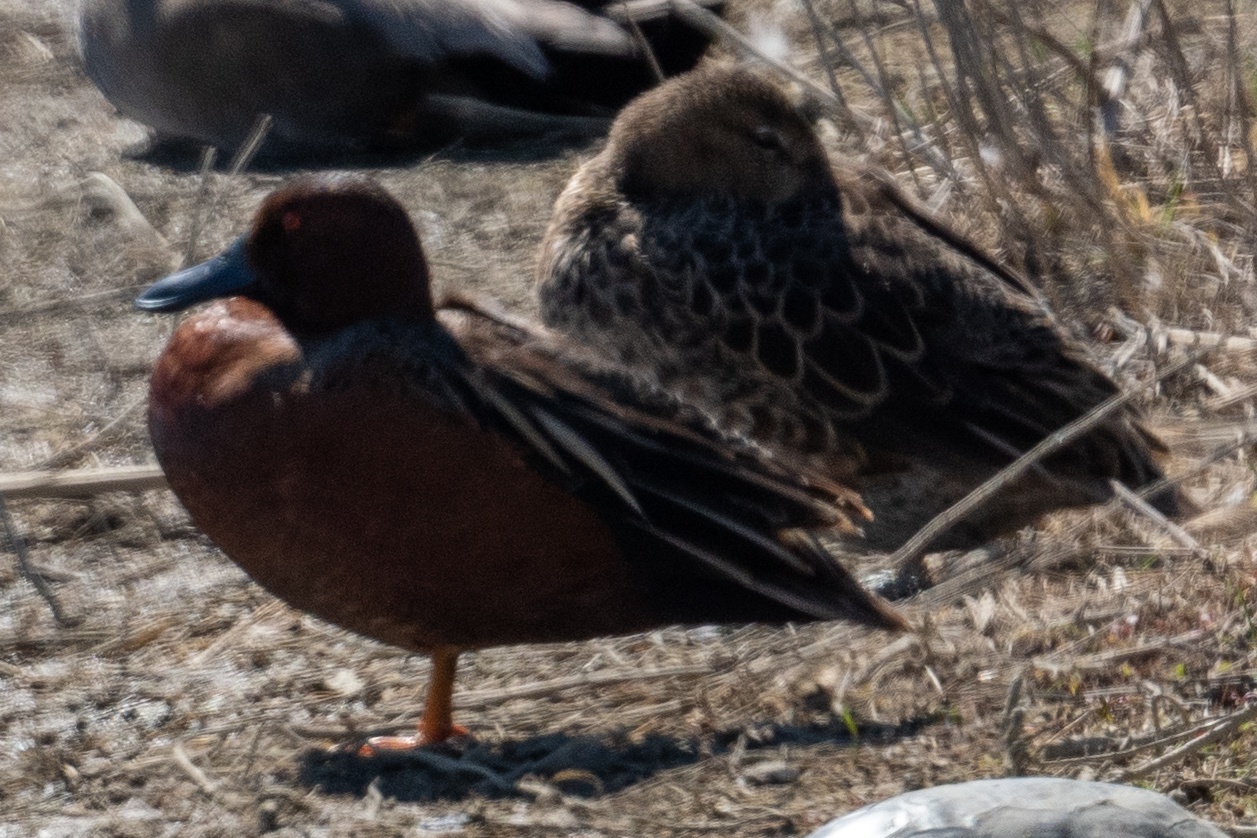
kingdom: Animalia
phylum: Chordata
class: Aves
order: Anseriformes
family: Anatidae
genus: Spatula
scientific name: Spatula cyanoptera
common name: Cinnamon teal
